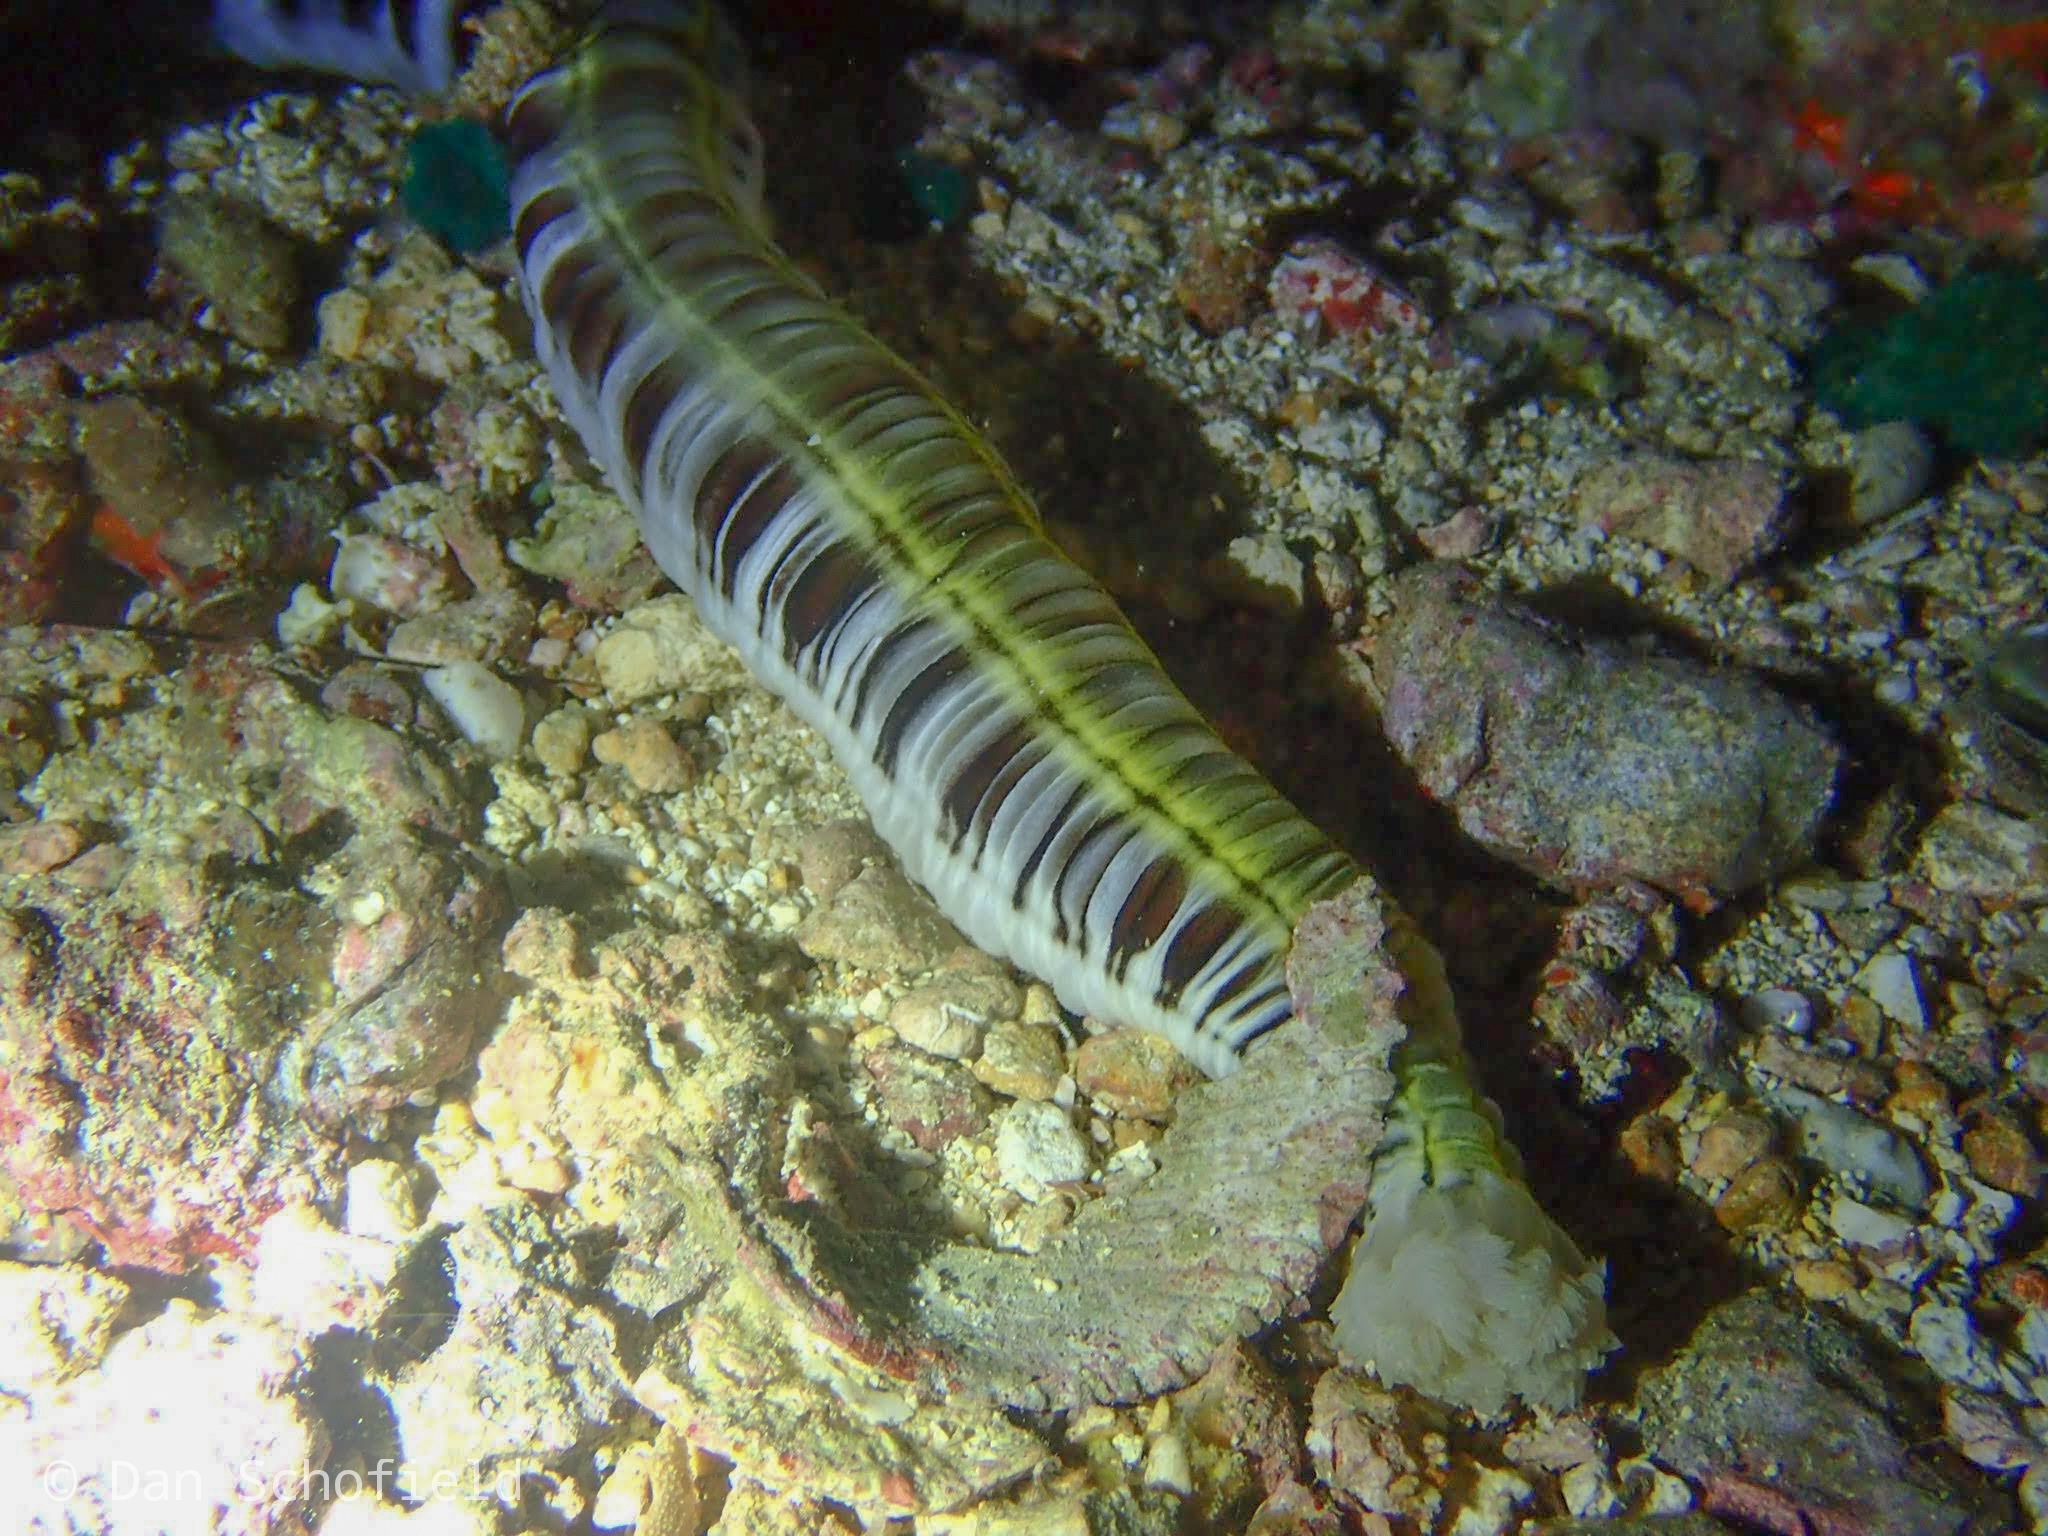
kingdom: Animalia
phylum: Echinodermata
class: Holothuroidea
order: Apodida
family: Synaptidae
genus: Euapta
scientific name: Euapta godeffroyi
